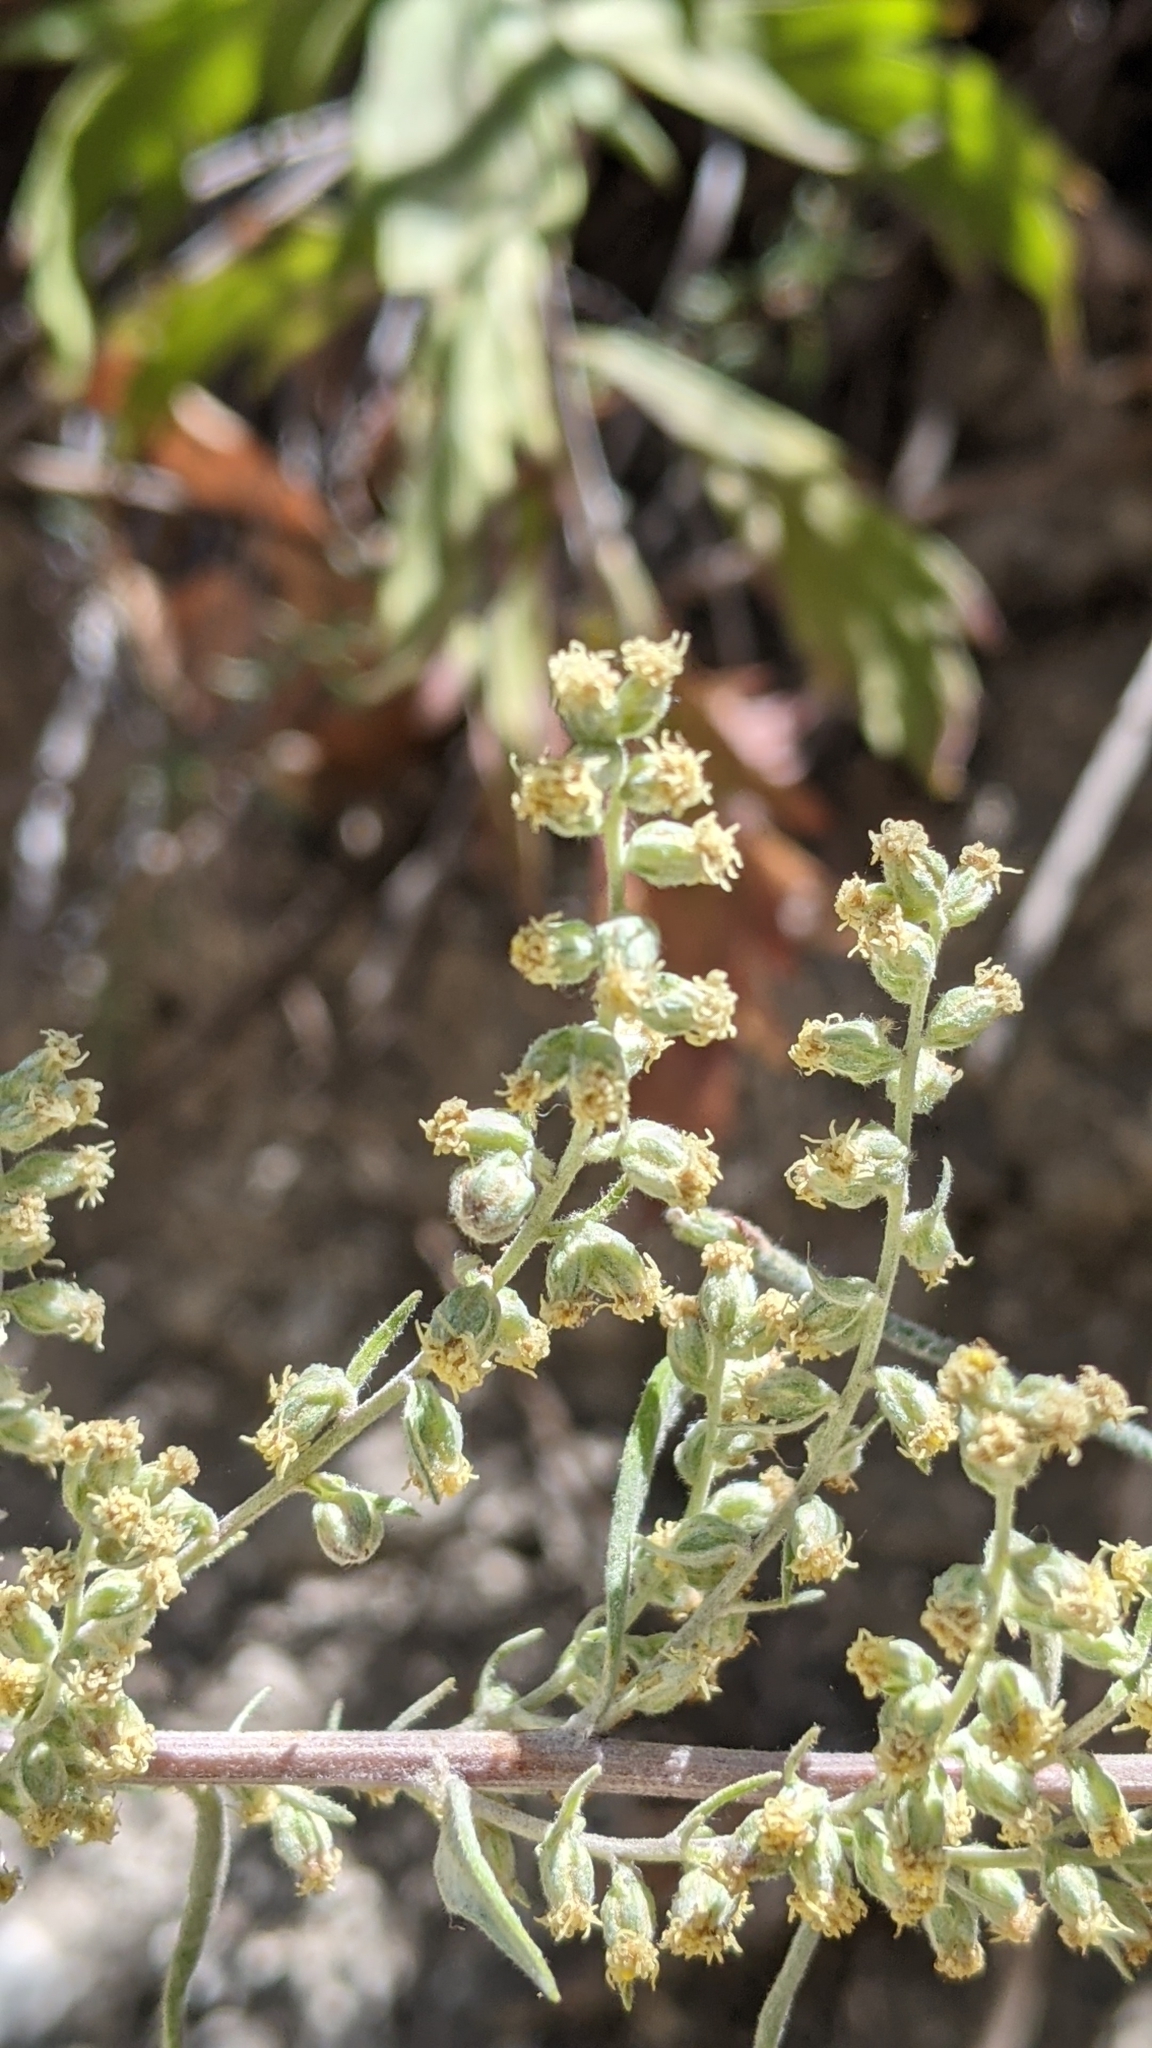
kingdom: Plantae
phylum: Tracheophyta
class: Magnoliopsida
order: Asterales
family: Asteraceae
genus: Artemisia
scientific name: Artemisia douglasiana
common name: Northwest mugwort
